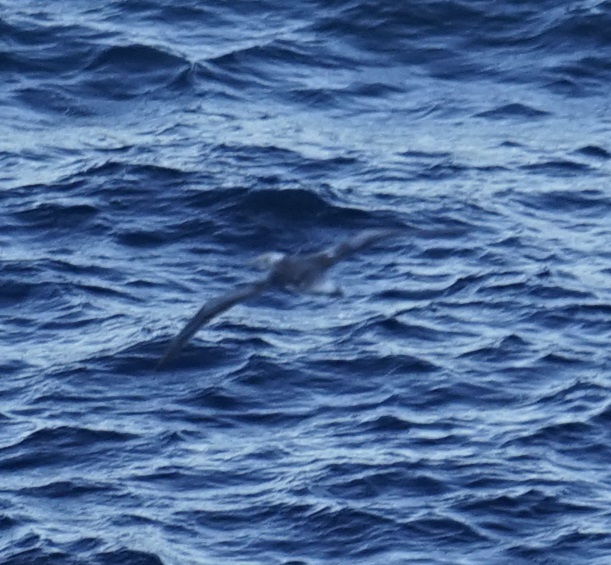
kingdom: Animalia
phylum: Chordata
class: Aves
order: Suliformes
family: Sulidae
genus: Morus
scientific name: Morus serrator
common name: Australasian gannet
